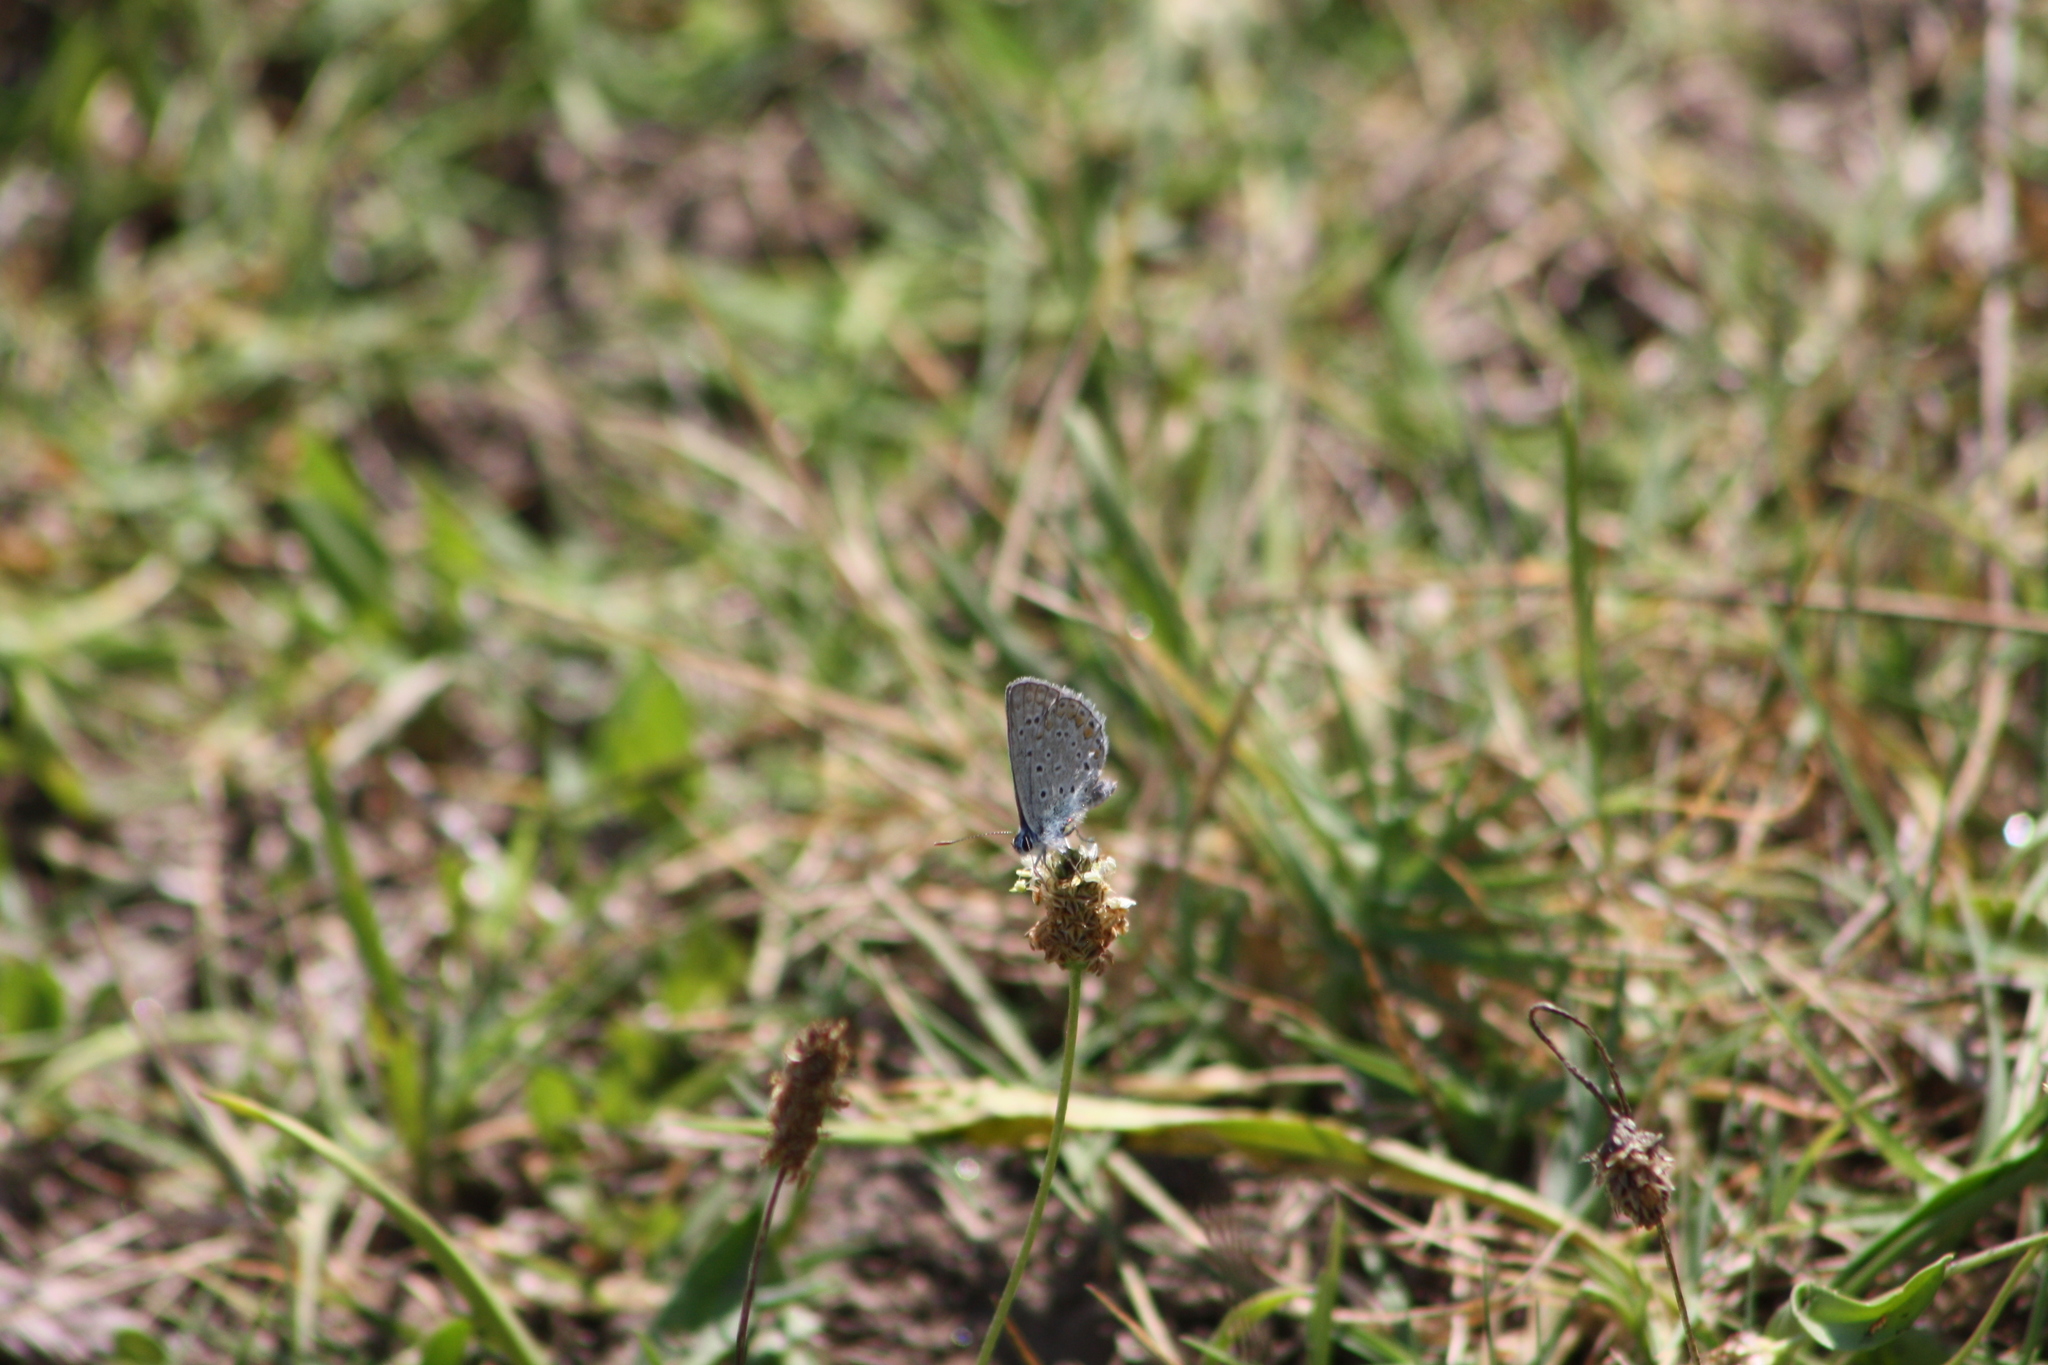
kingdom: Animalia
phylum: Arthropoda
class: Insecta
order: Lepidoptera
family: Lycaenidae
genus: Polyommatus
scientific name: Polyommatus icarus
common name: Common blue
